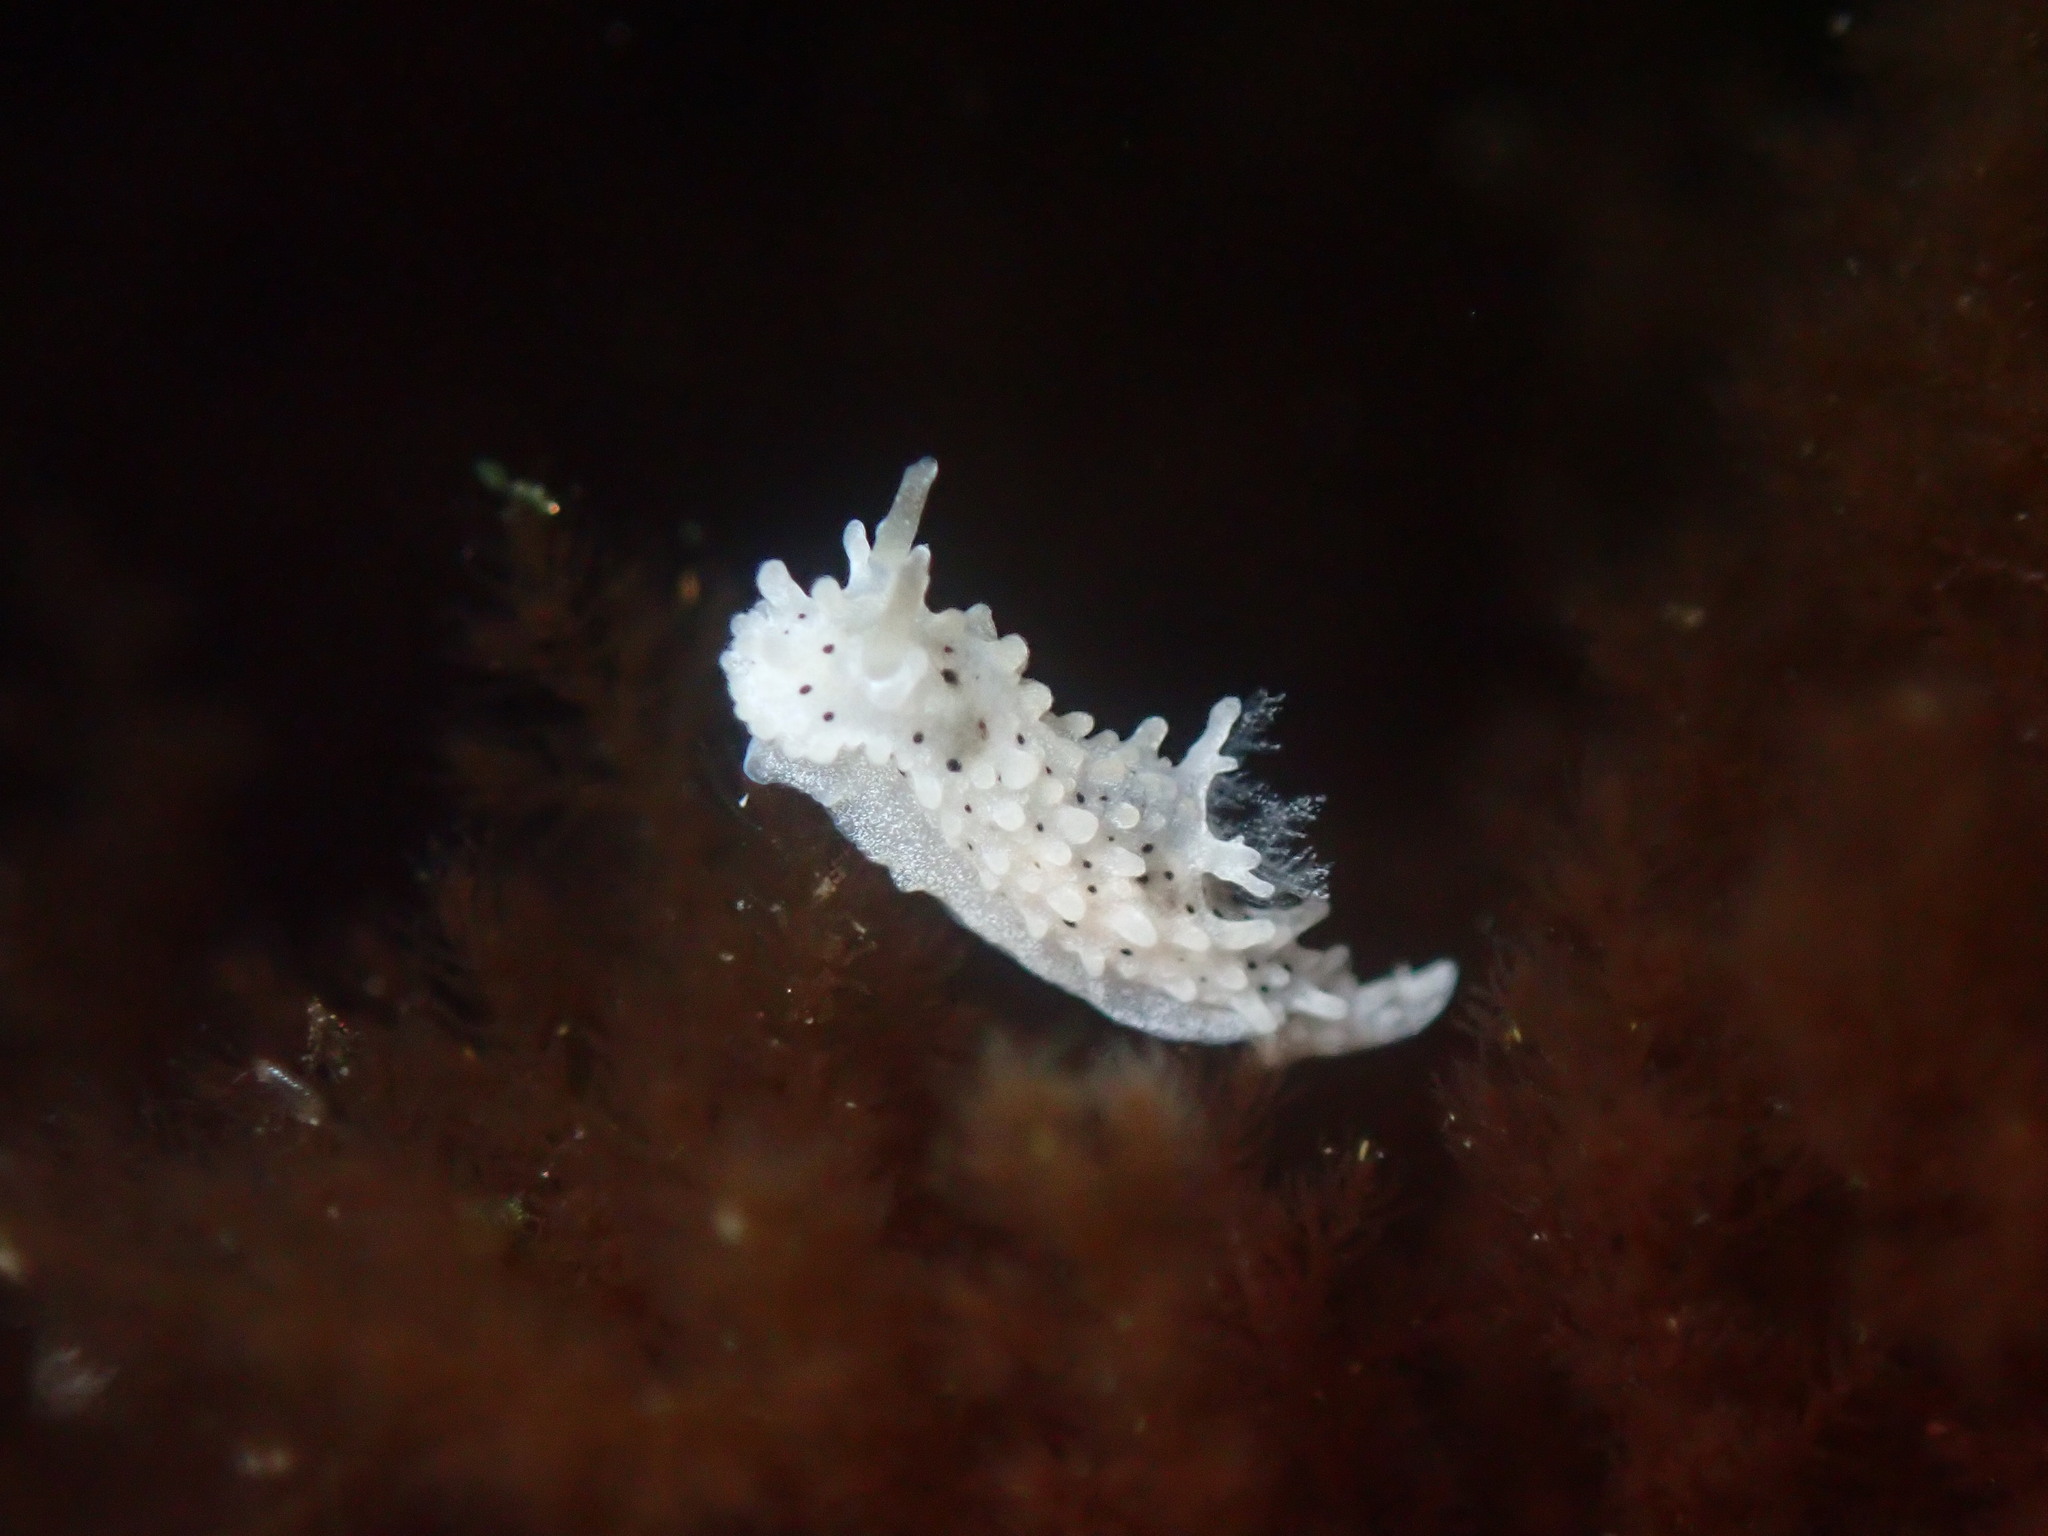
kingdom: Animalia
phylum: Mollusca
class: Gastropoda
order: Nudibranchia
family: Aegiridae
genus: Aegires
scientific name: Aegires albopunctatus
